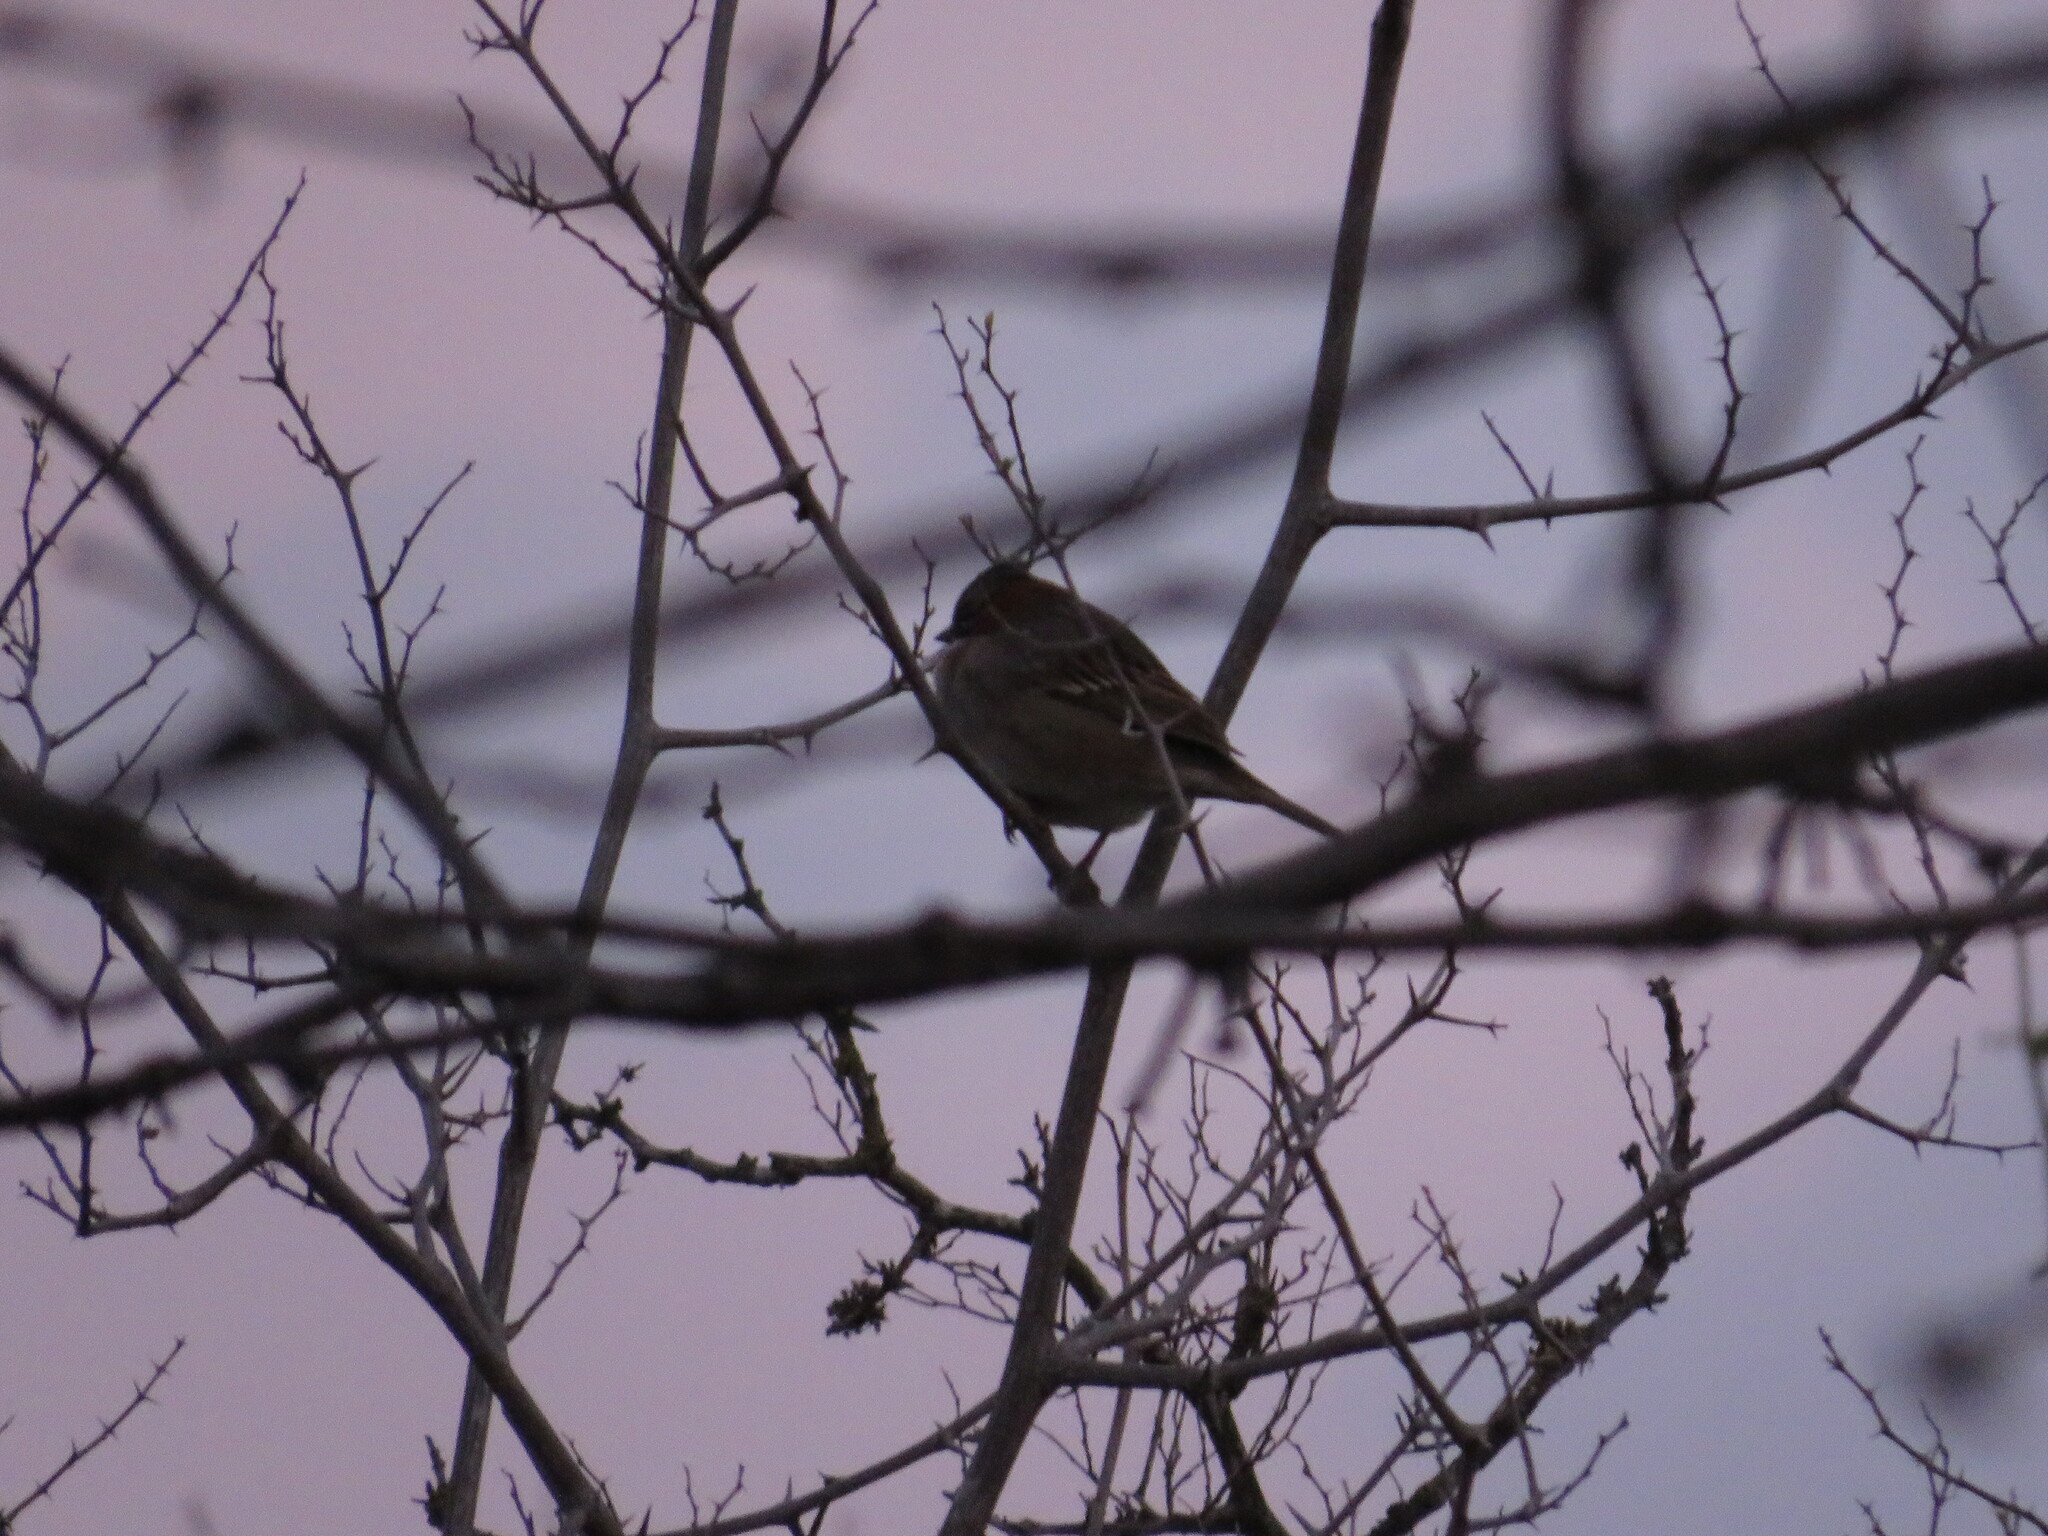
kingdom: Animalia
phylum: Chordata
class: Aves
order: Passeriformes
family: Passerellidae
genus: Zonotrichia
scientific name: Zonotrichia capensis
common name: Rufous-collared sparrow
